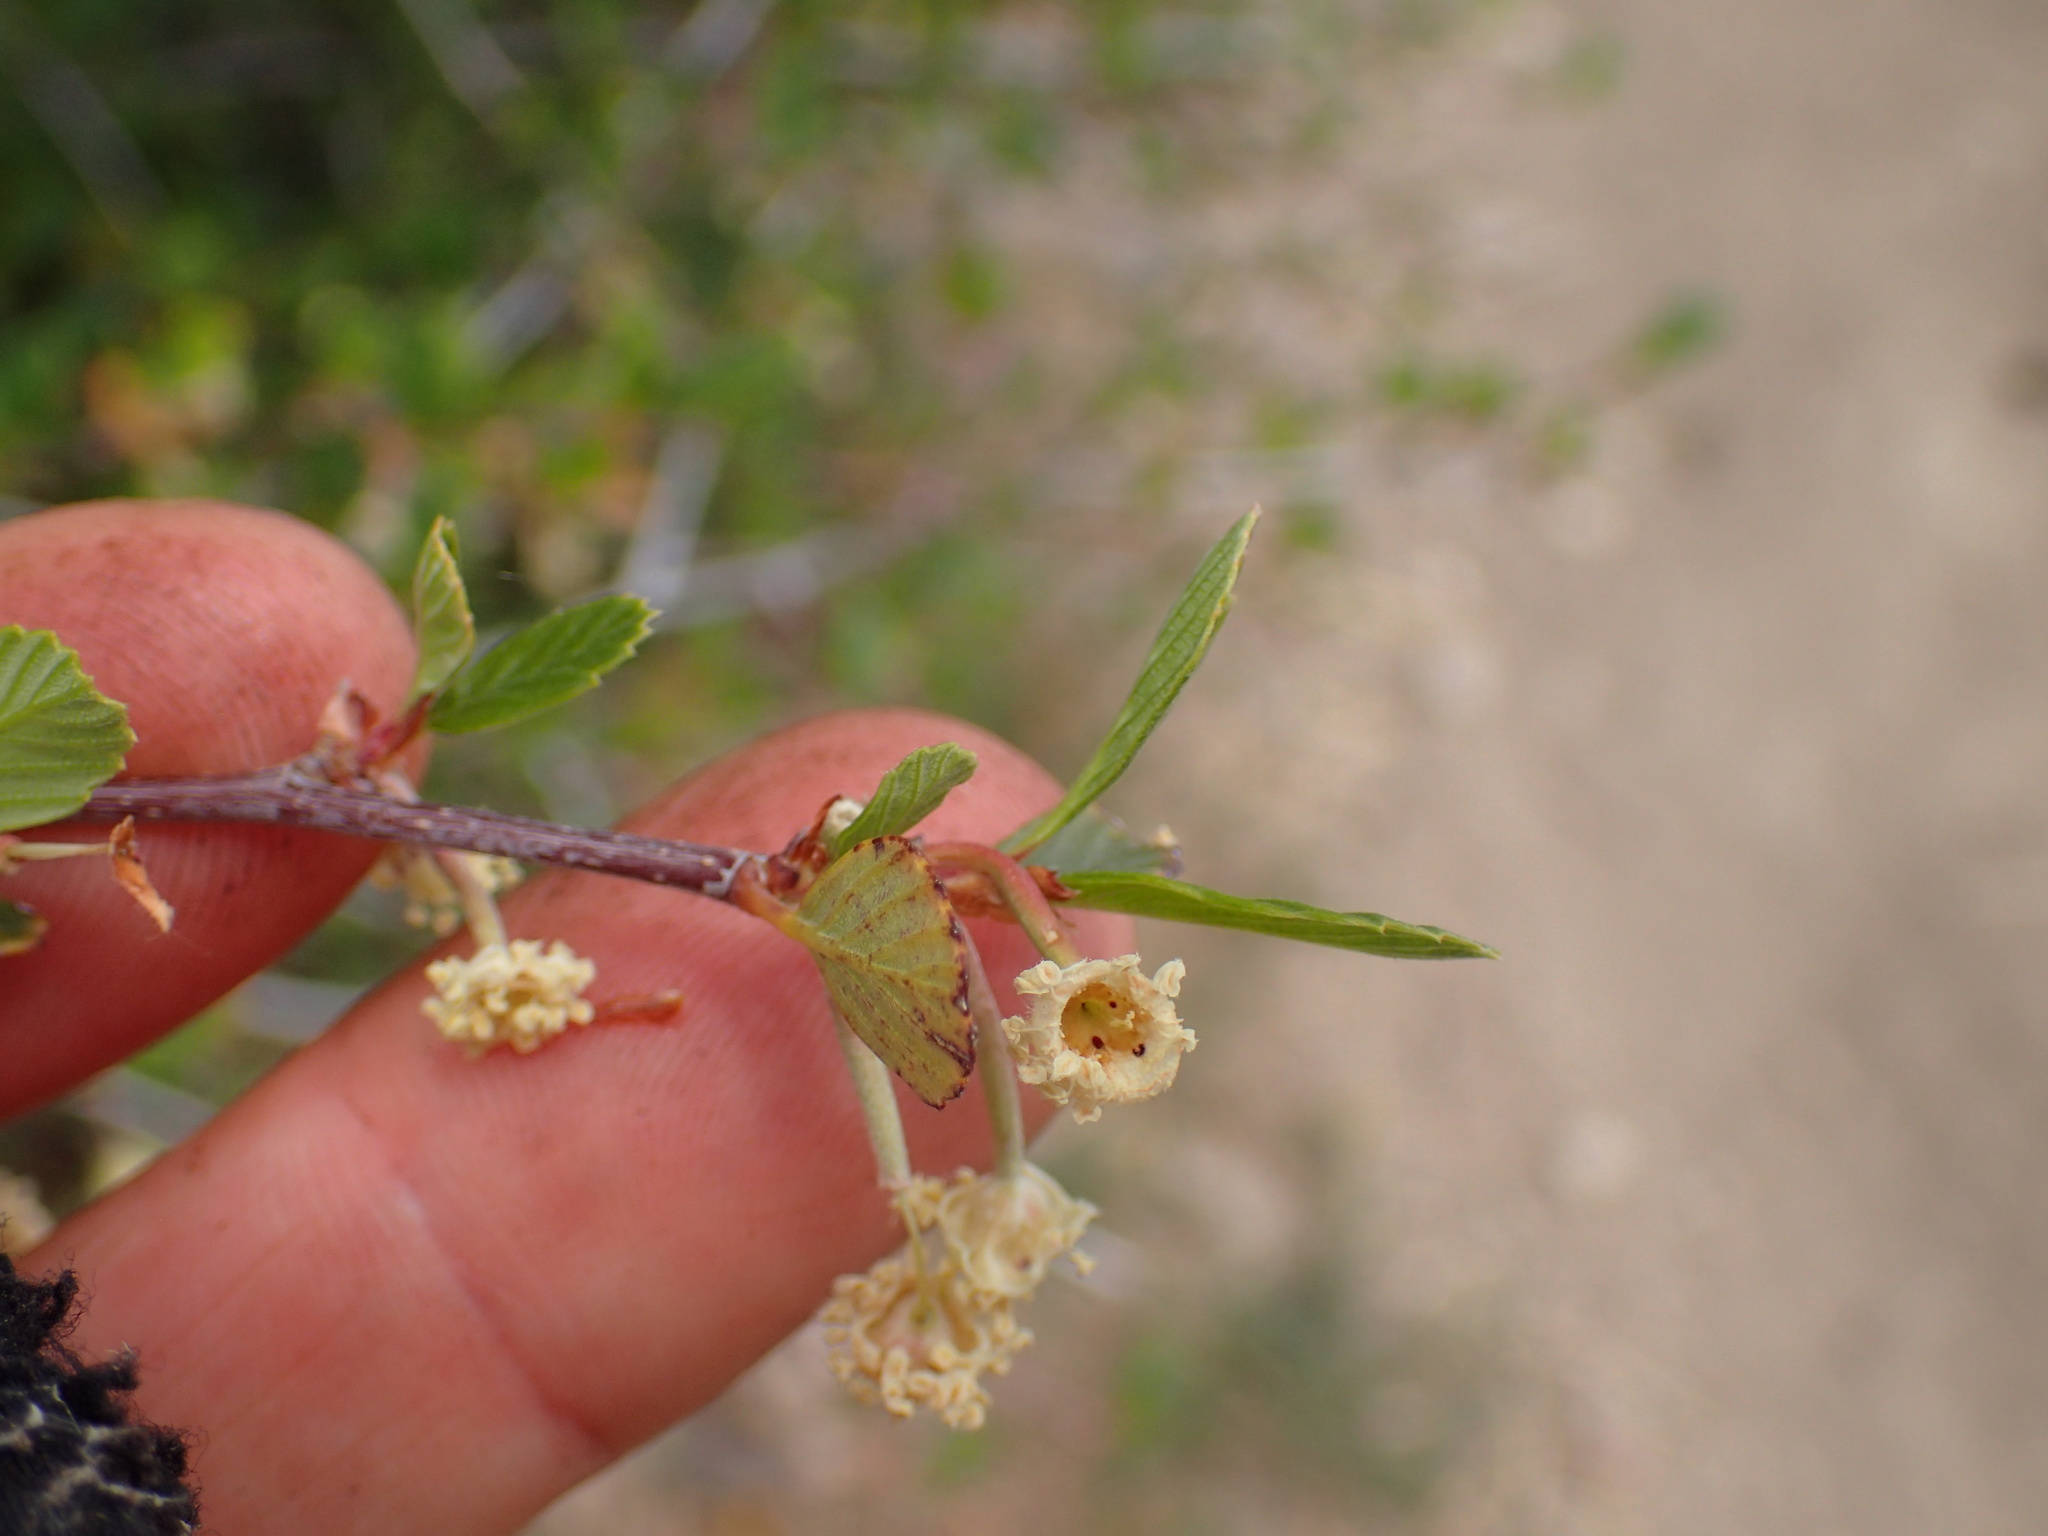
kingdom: Plantae
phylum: Tracheophyta
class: Magnoliopsida
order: Rosales
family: Rosaceae
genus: Cercocarpus
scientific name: Cercocarpus betuloides
